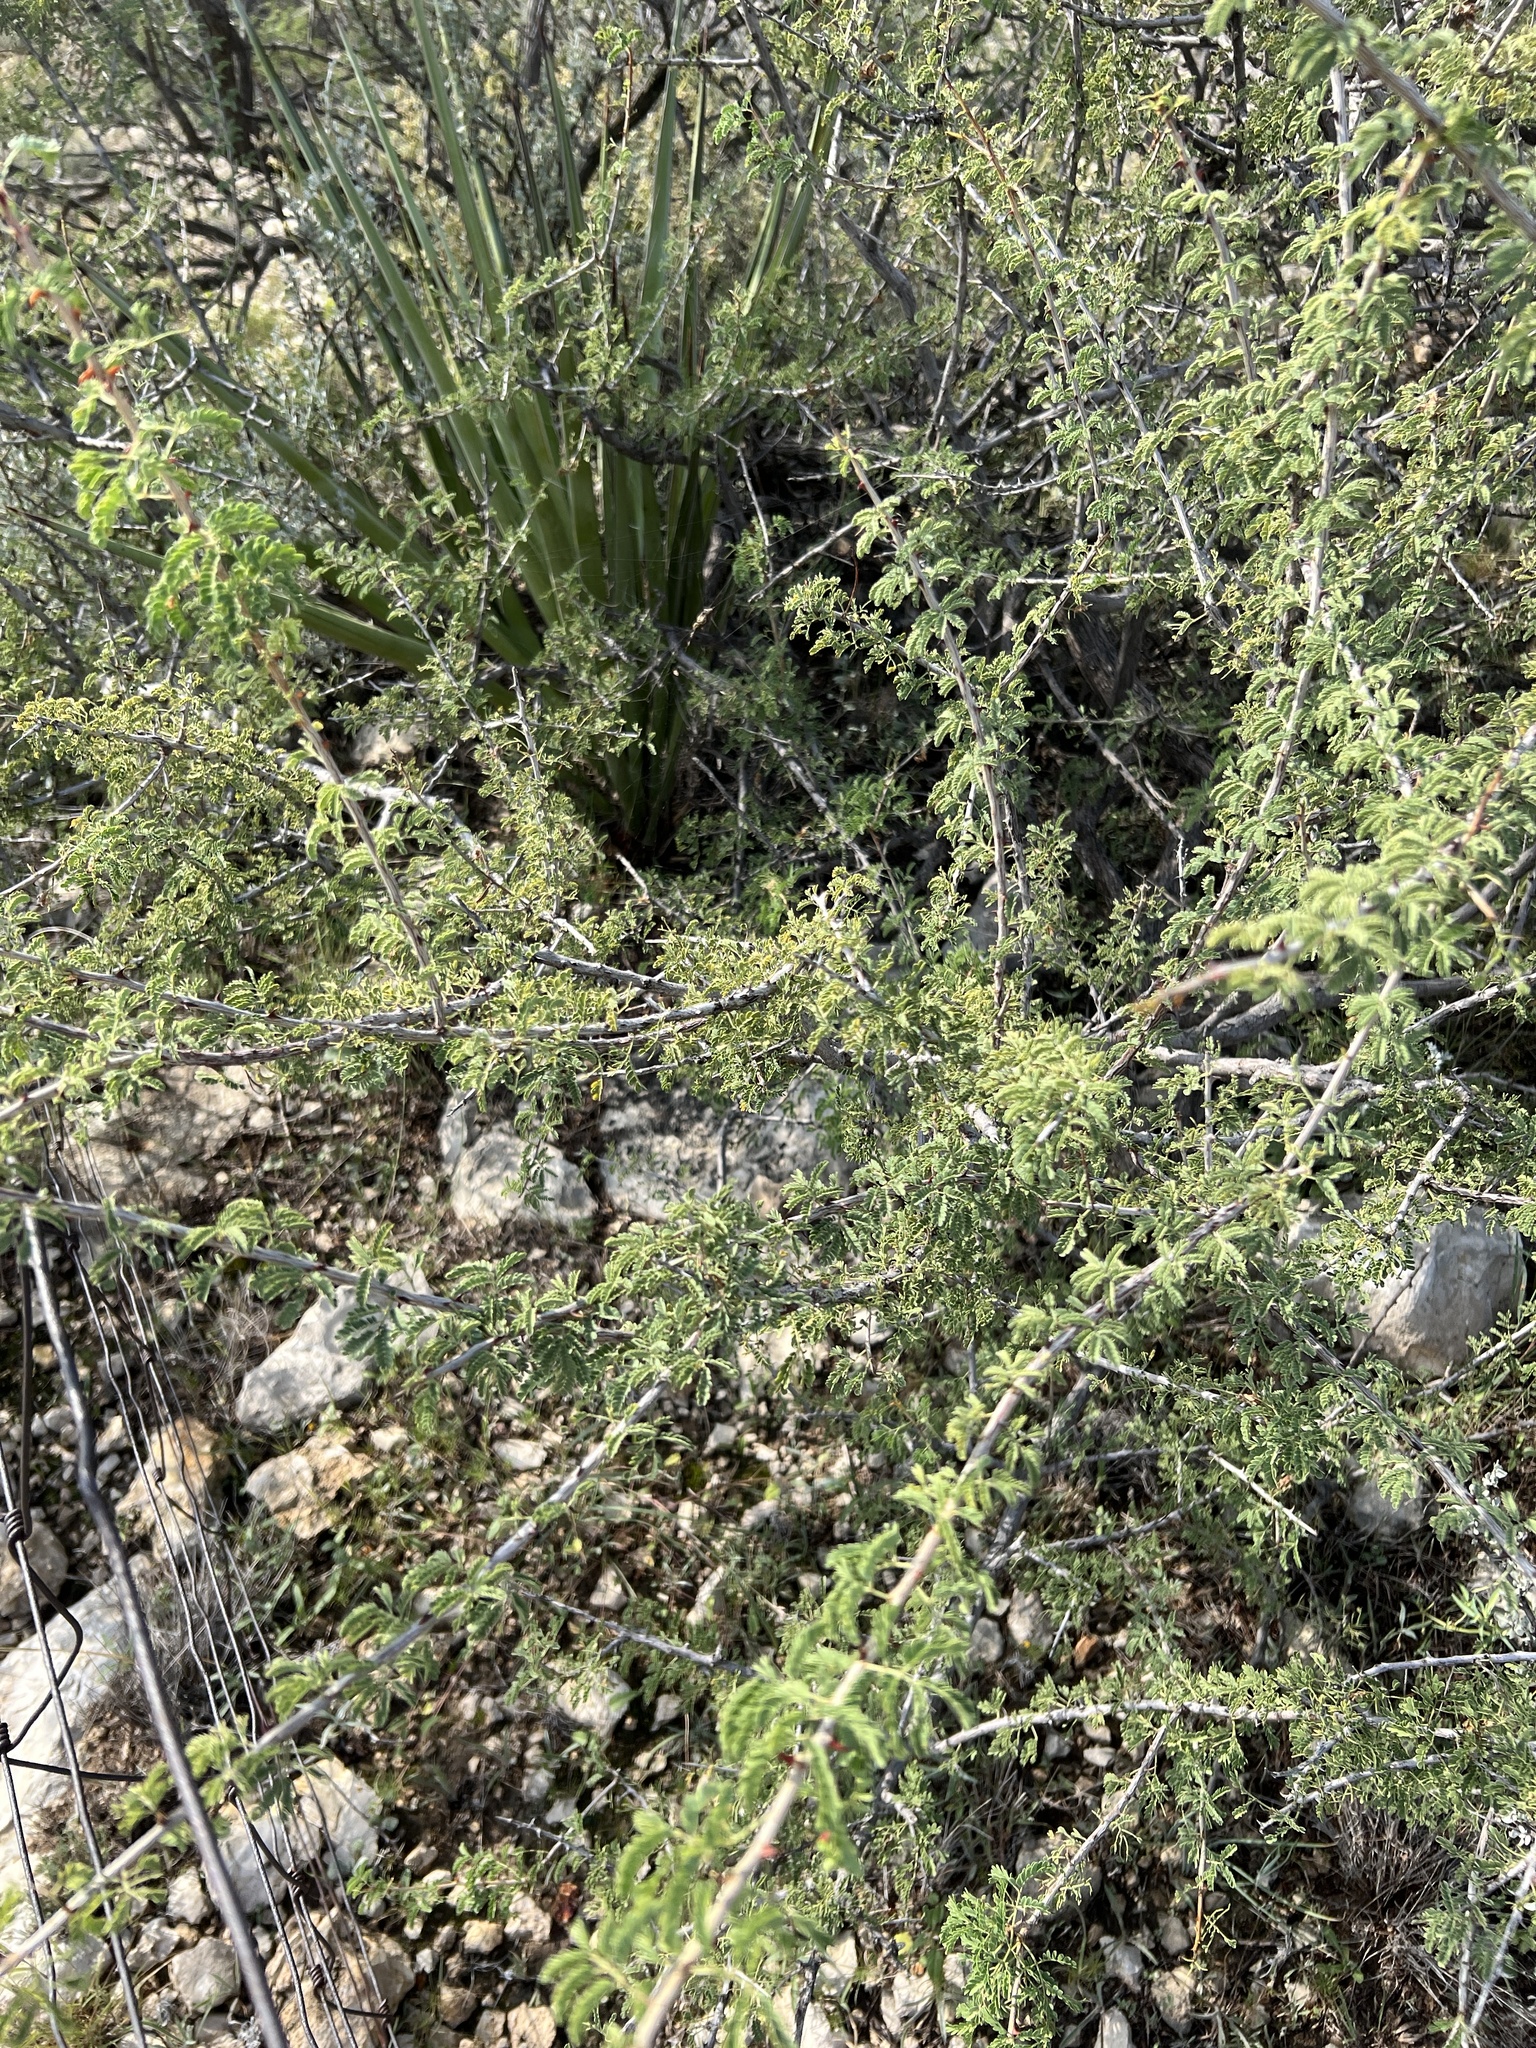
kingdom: Plantae
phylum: Tracheophyta
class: Magnoliopsida
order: Fabales
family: Fabaceae
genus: Senegalia
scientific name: Senegalia greggii
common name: Texas-mimosa
